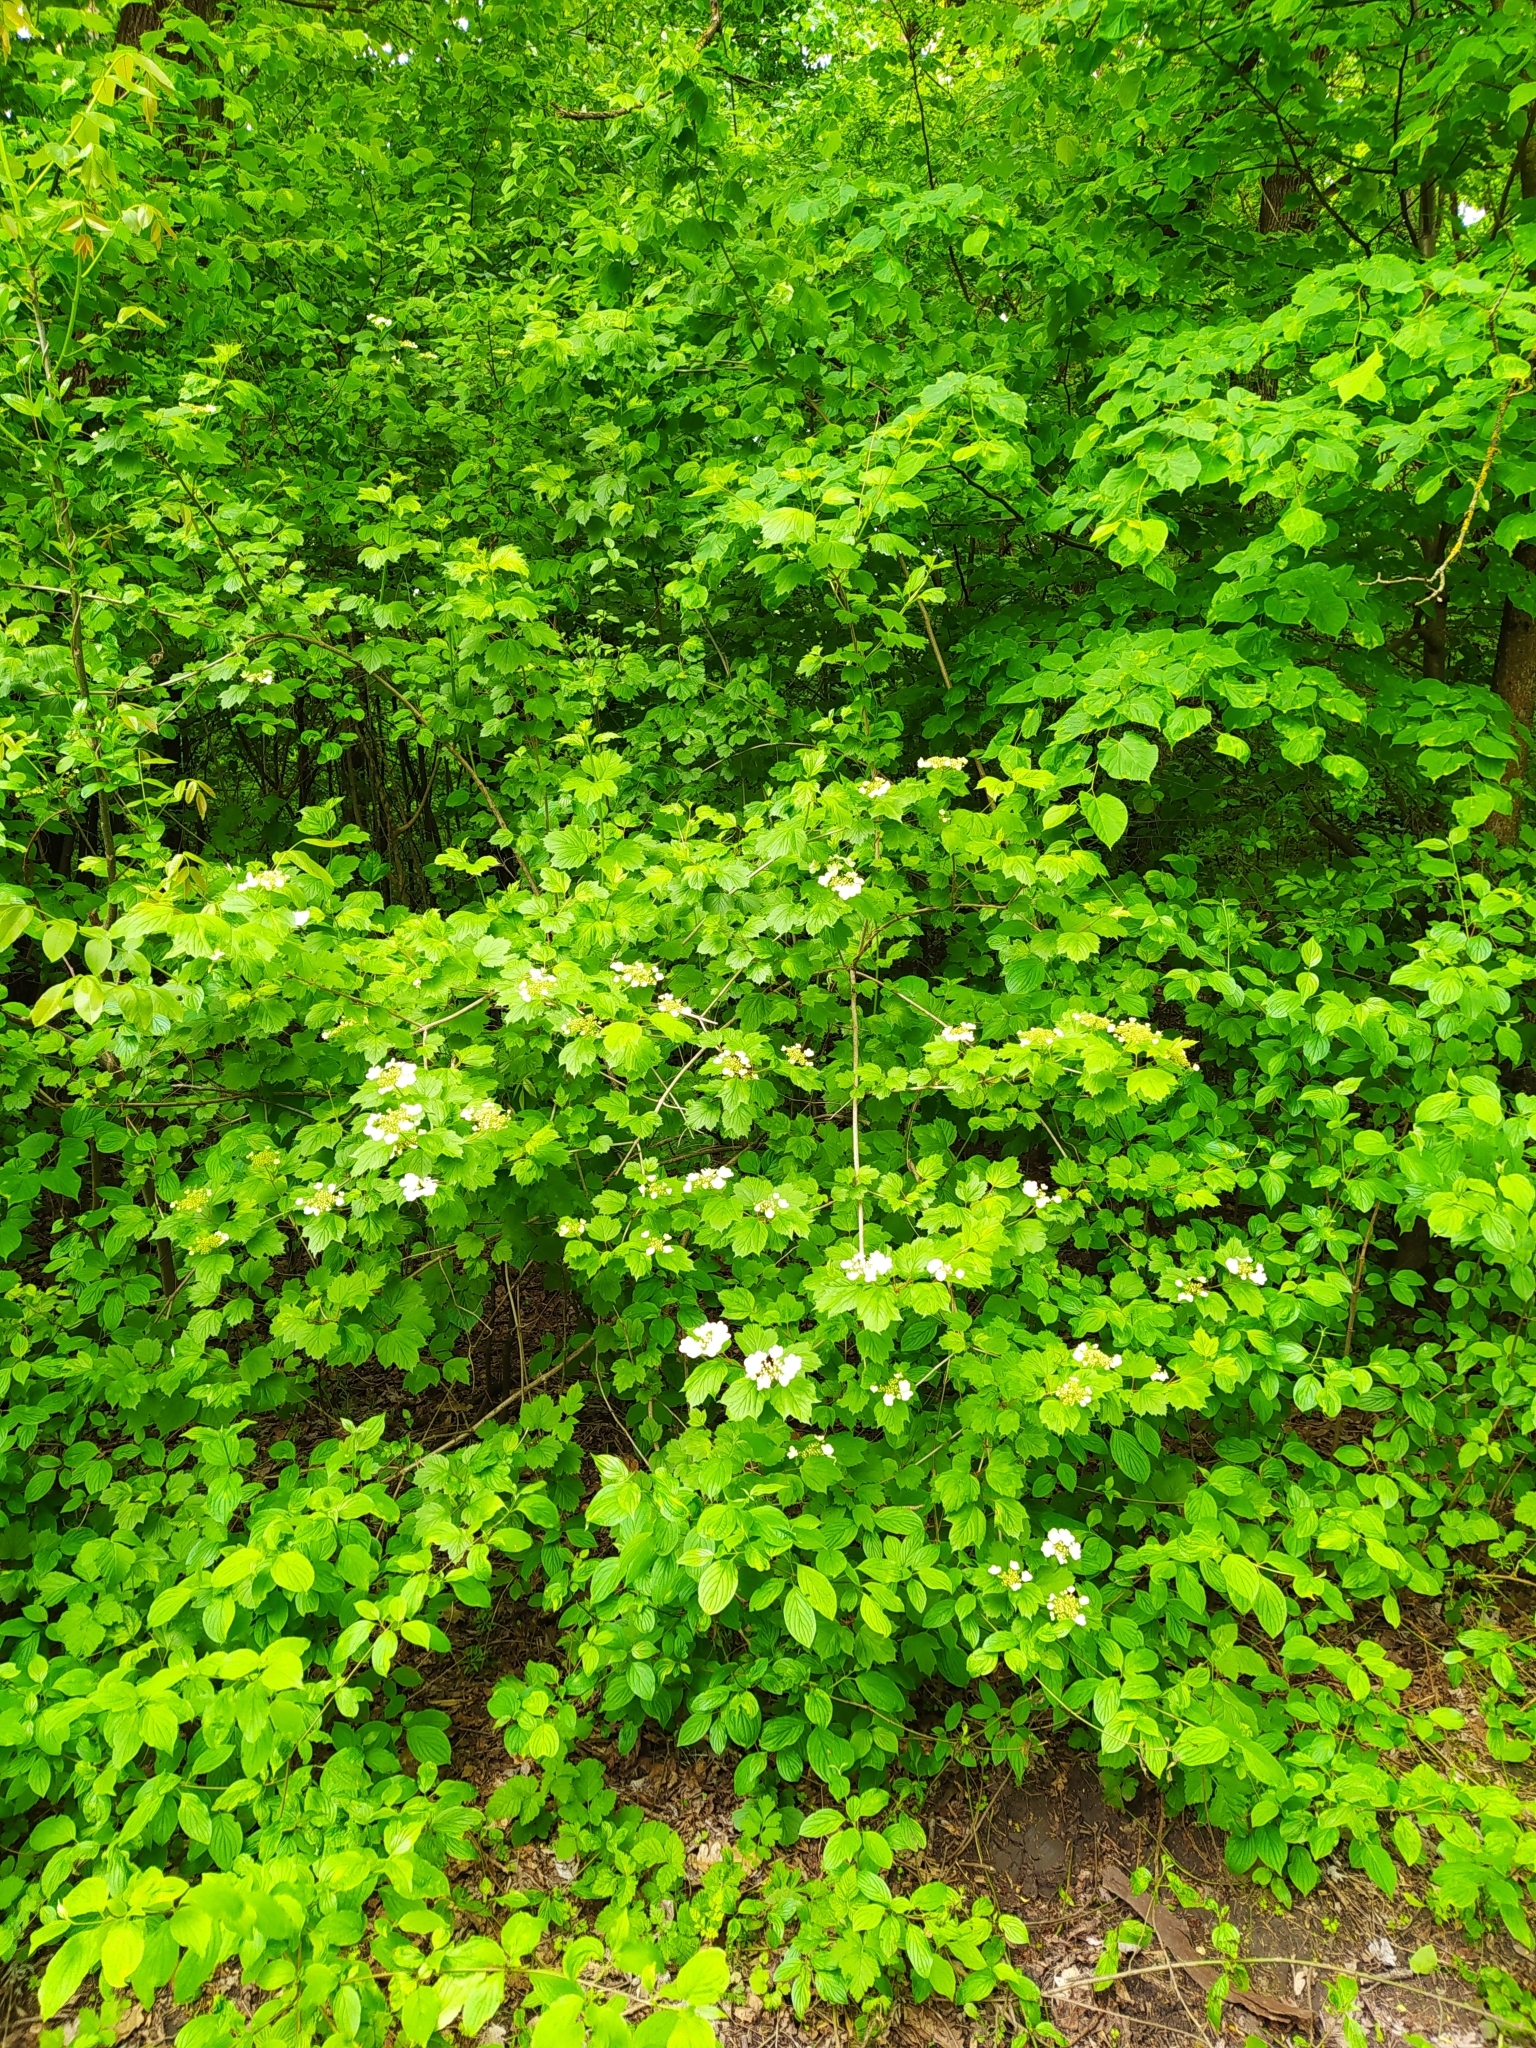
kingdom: Plantae
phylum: Tracheophyta
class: Magnoliopsida
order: Dipsacales
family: Viburnaceae
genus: Viburnum
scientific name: Viburnum opulus
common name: Guelder-rose
